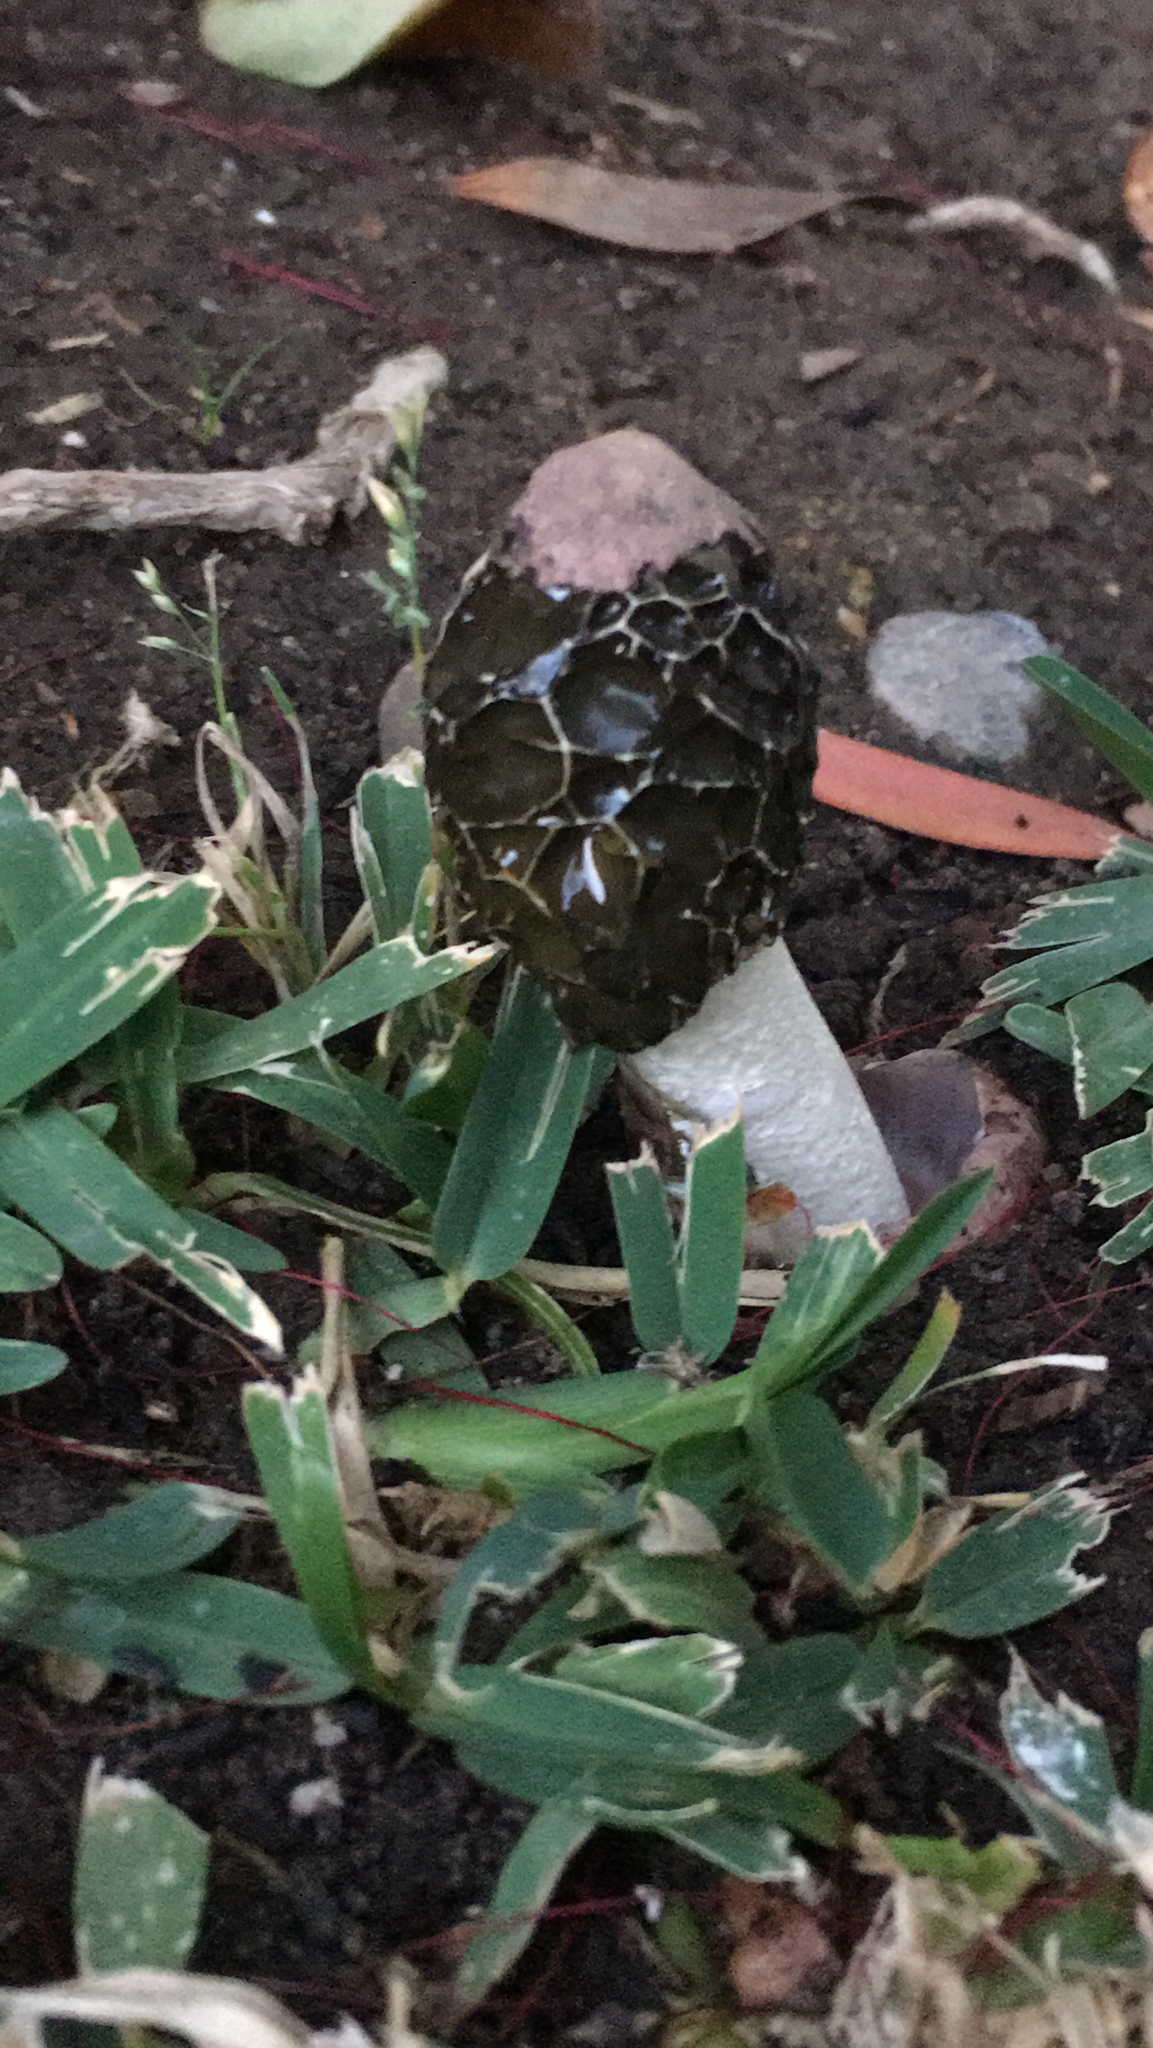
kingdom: Fungi
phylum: Basidiomycota
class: Agaricomycetes
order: Phallales
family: Phallaceae
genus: Phallus
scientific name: Phallus hadriani
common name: Sand stinkhorn
